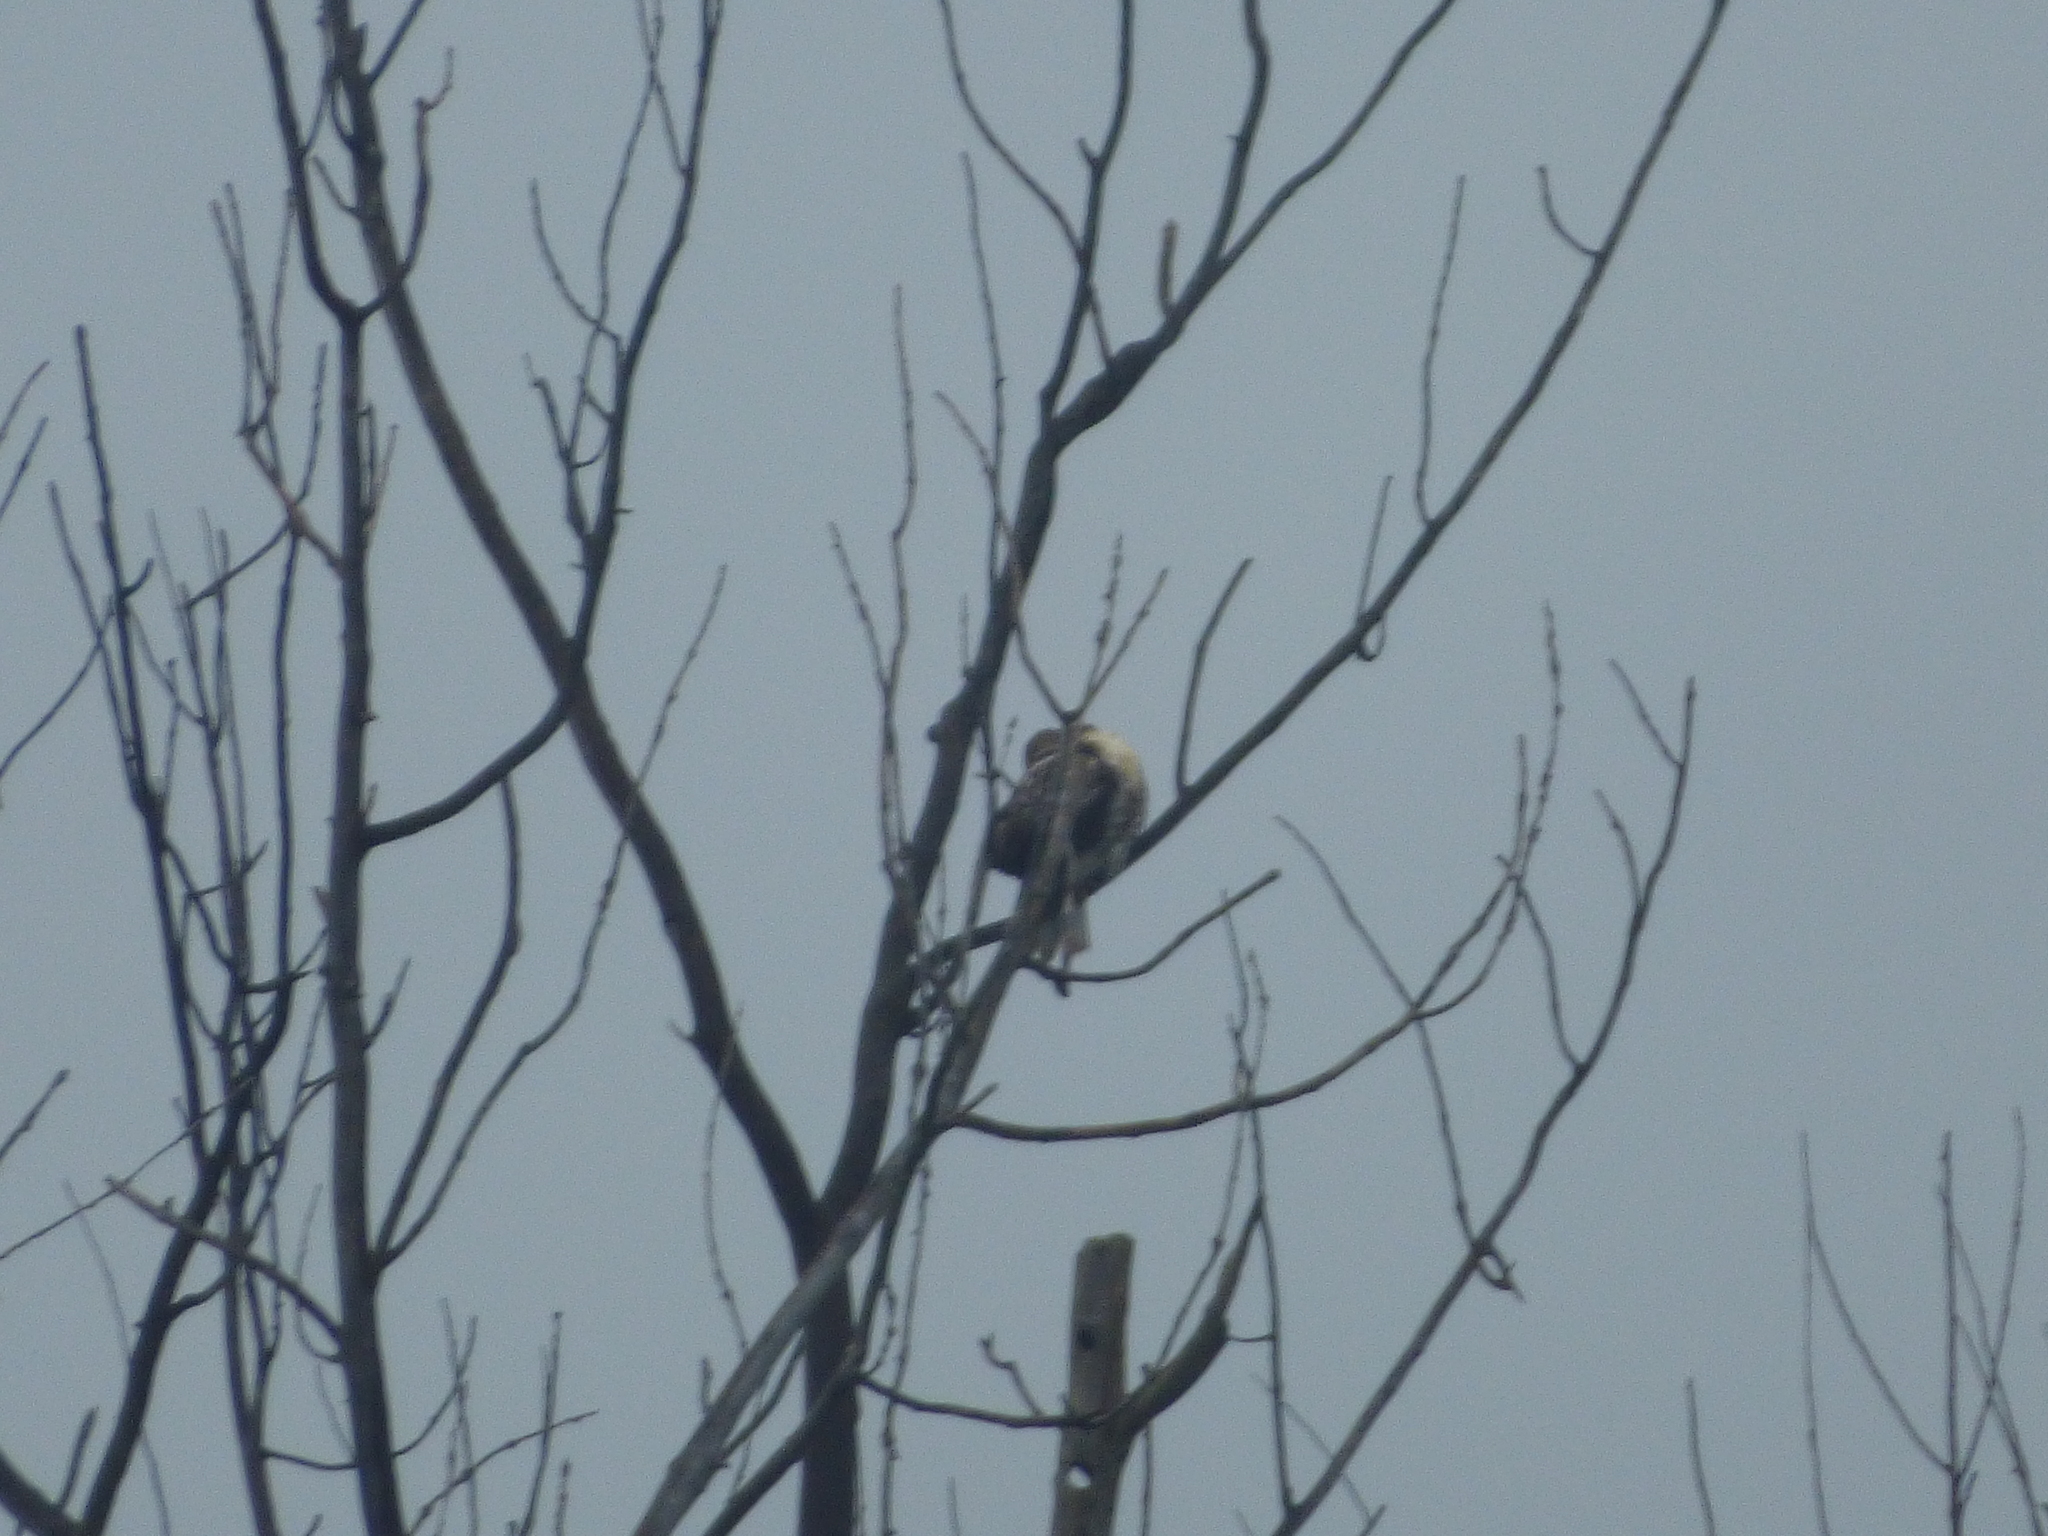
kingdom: Animalia
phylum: Chordata
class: Aves
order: Accipitriformes
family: Accipitridae
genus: Buteo
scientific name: Buteo jamaicensis
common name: Red-tailed hawk
